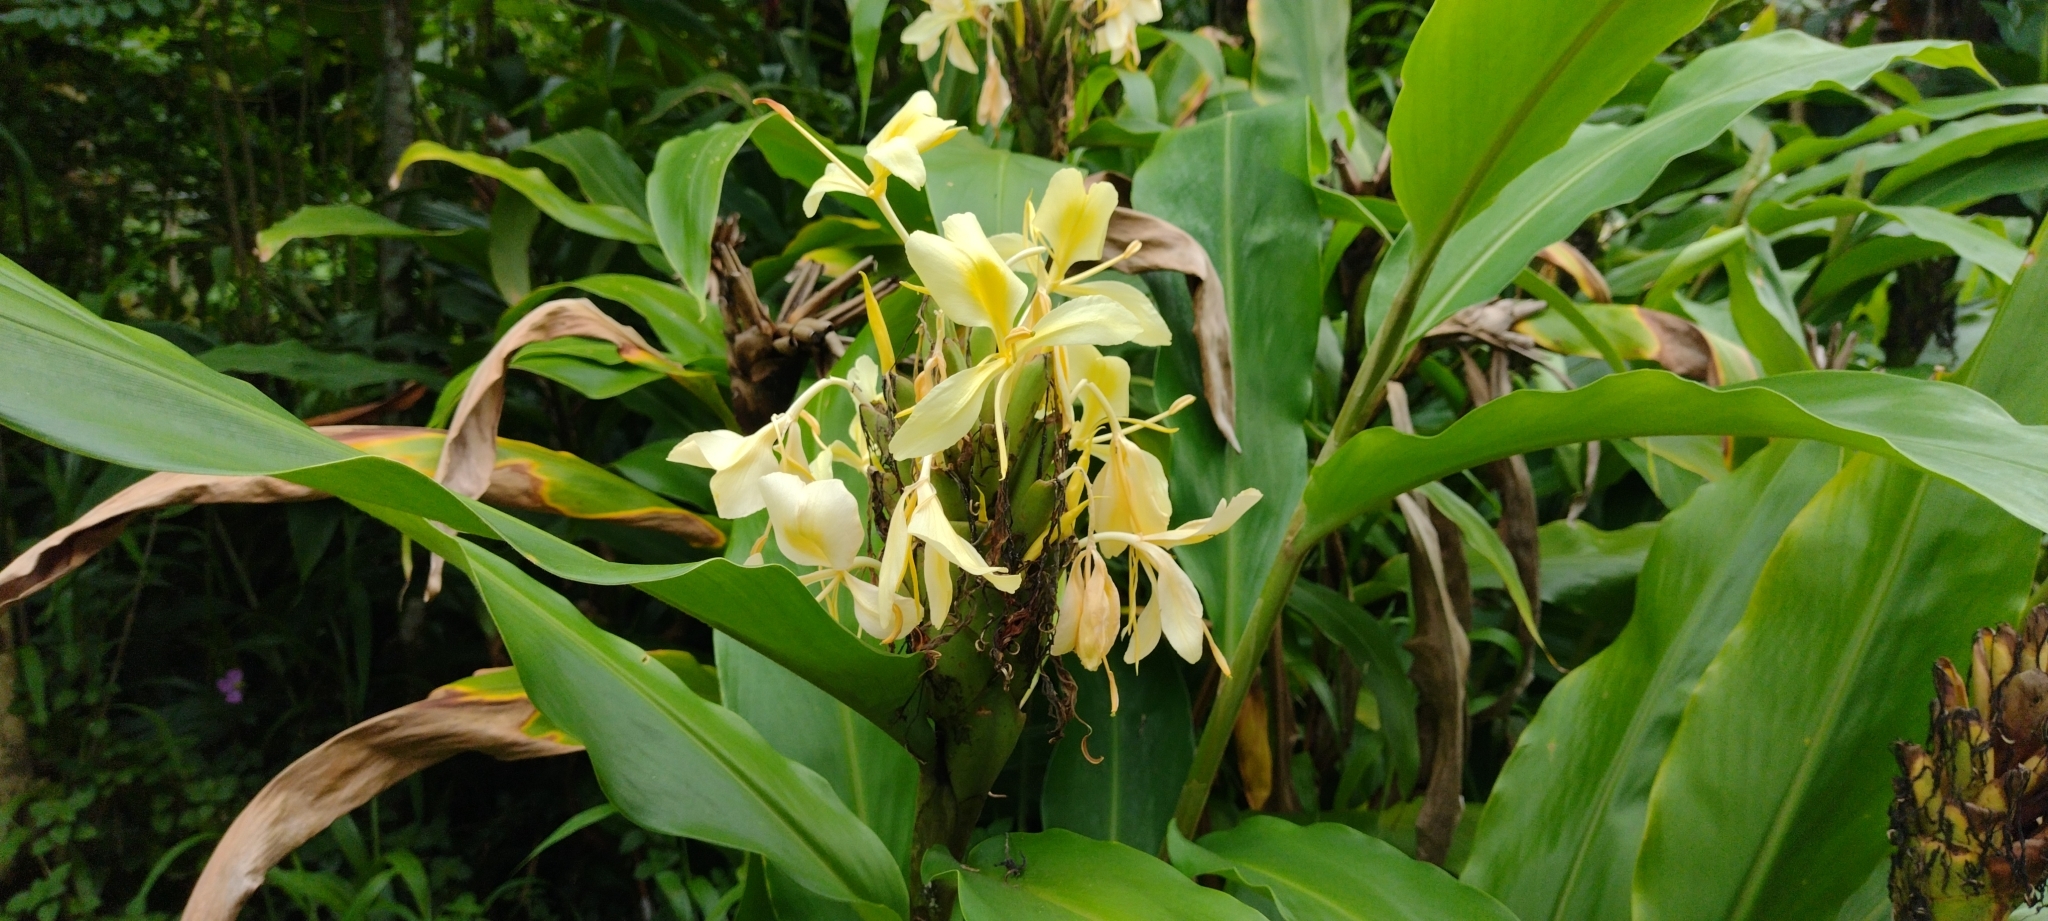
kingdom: Plantae
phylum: Tracheophyta
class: Liliopsida
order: Zingiberales
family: Zingiberaceae
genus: Hedychium
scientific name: Hedychium flavescens
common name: Yellow ginger
